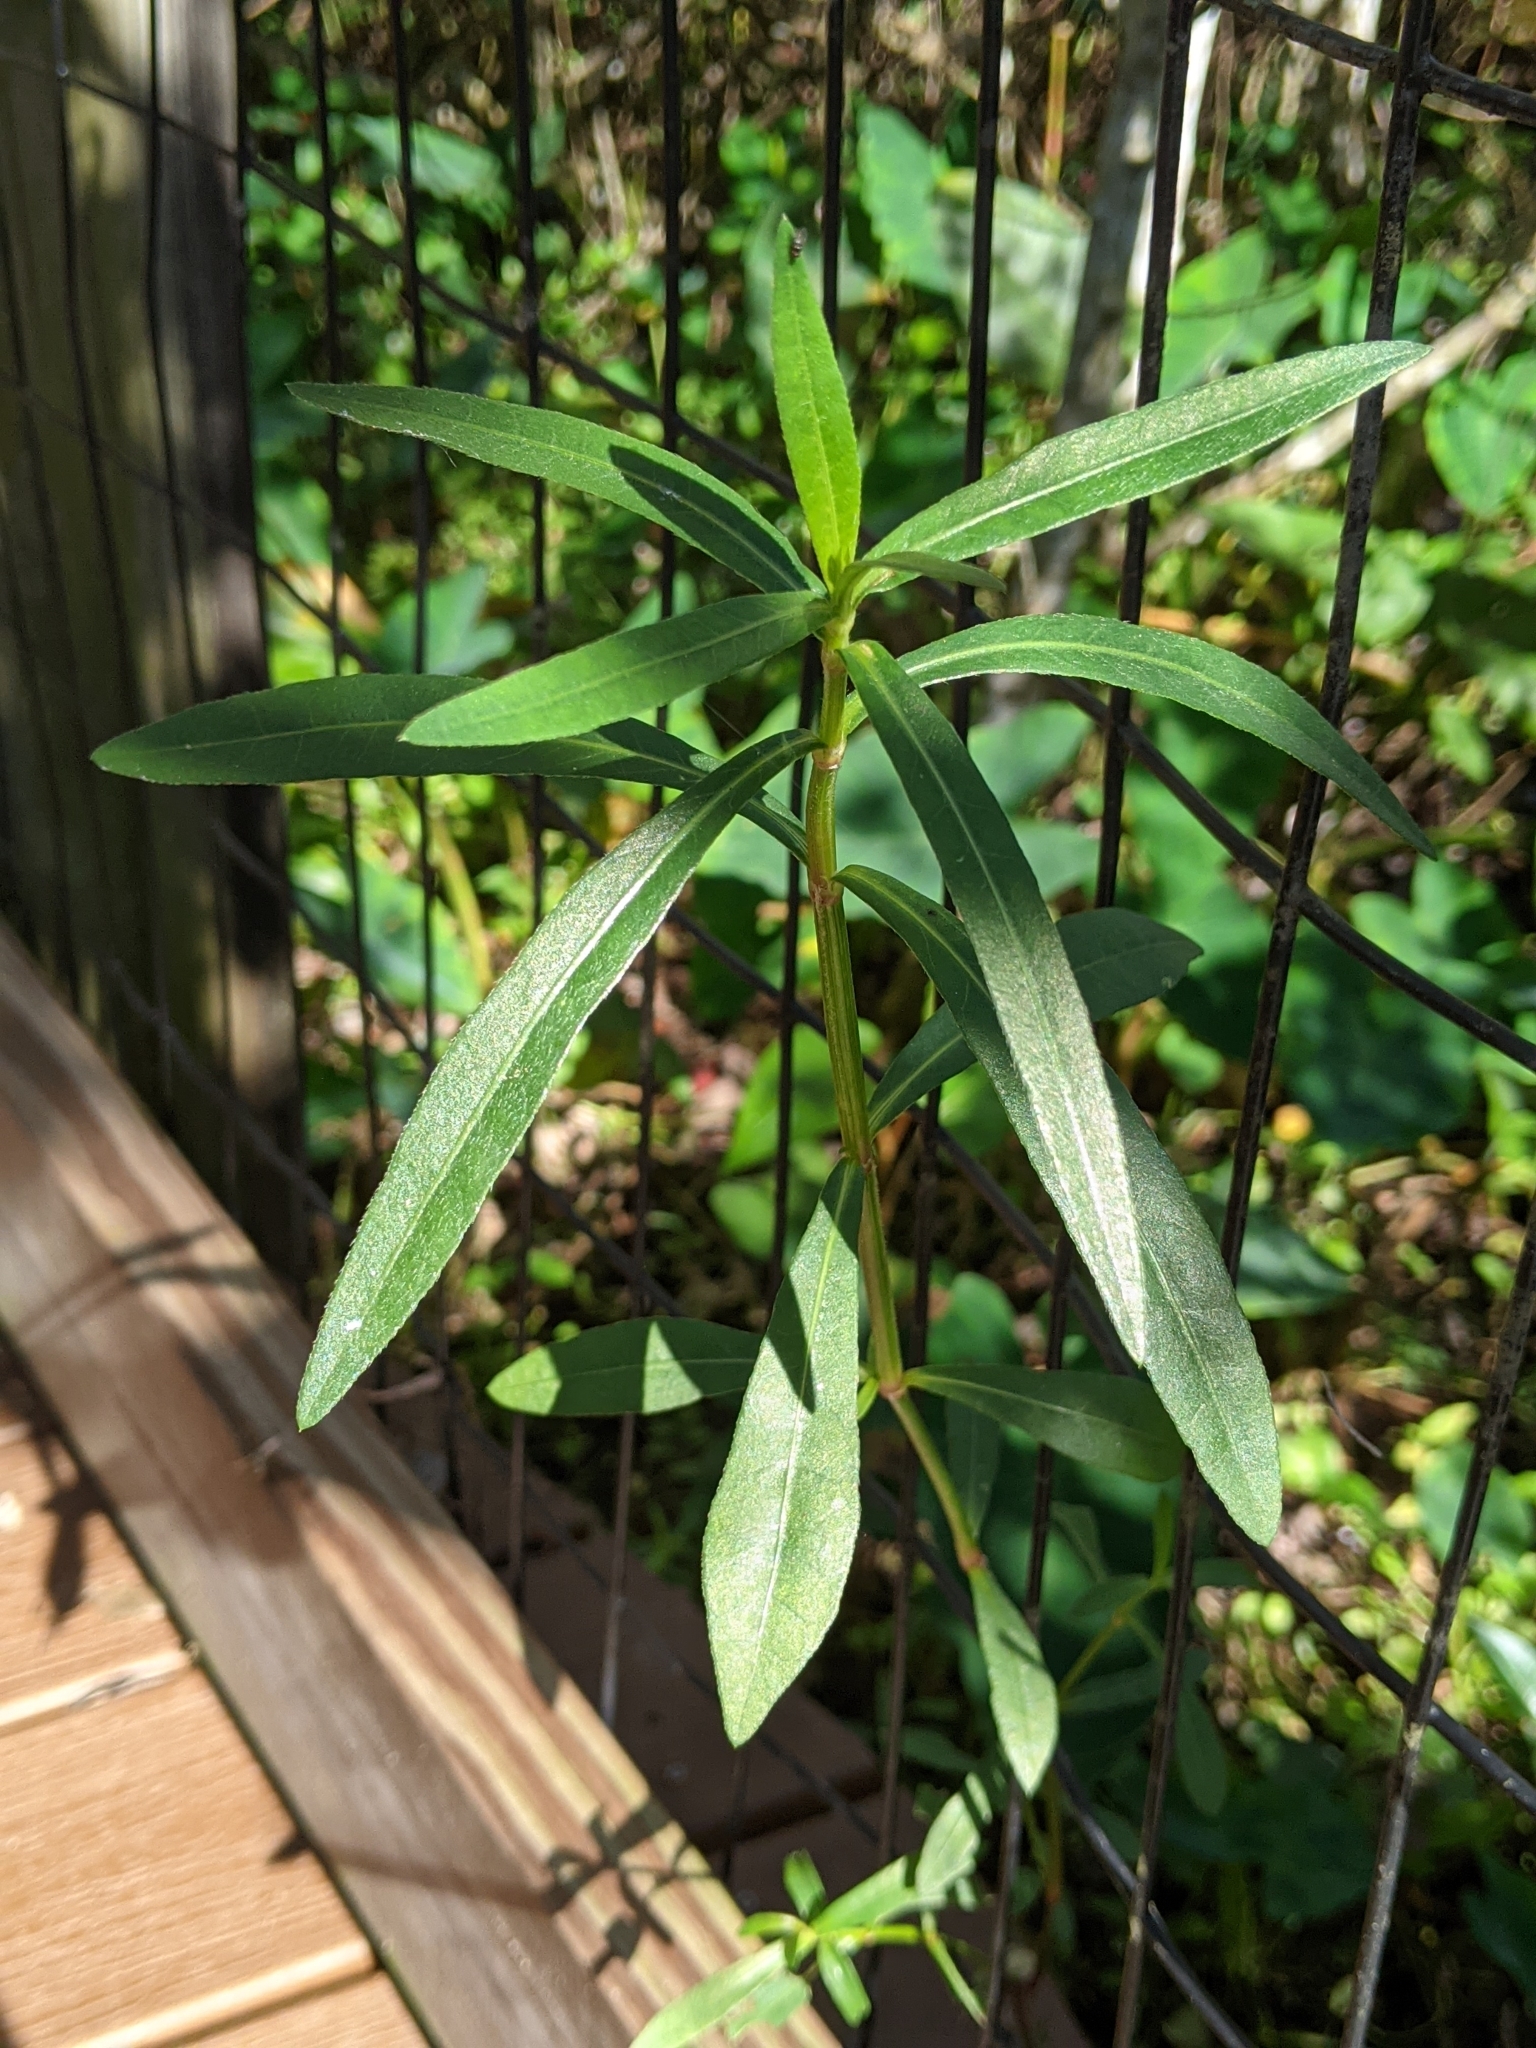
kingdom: Plantae
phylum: Tracheophyta
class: Magnoliopsida
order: Caryophyllales
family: Amaranthaceae
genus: Alternanthera
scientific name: Alternanthera philoxeroides
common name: Alligatorweed
